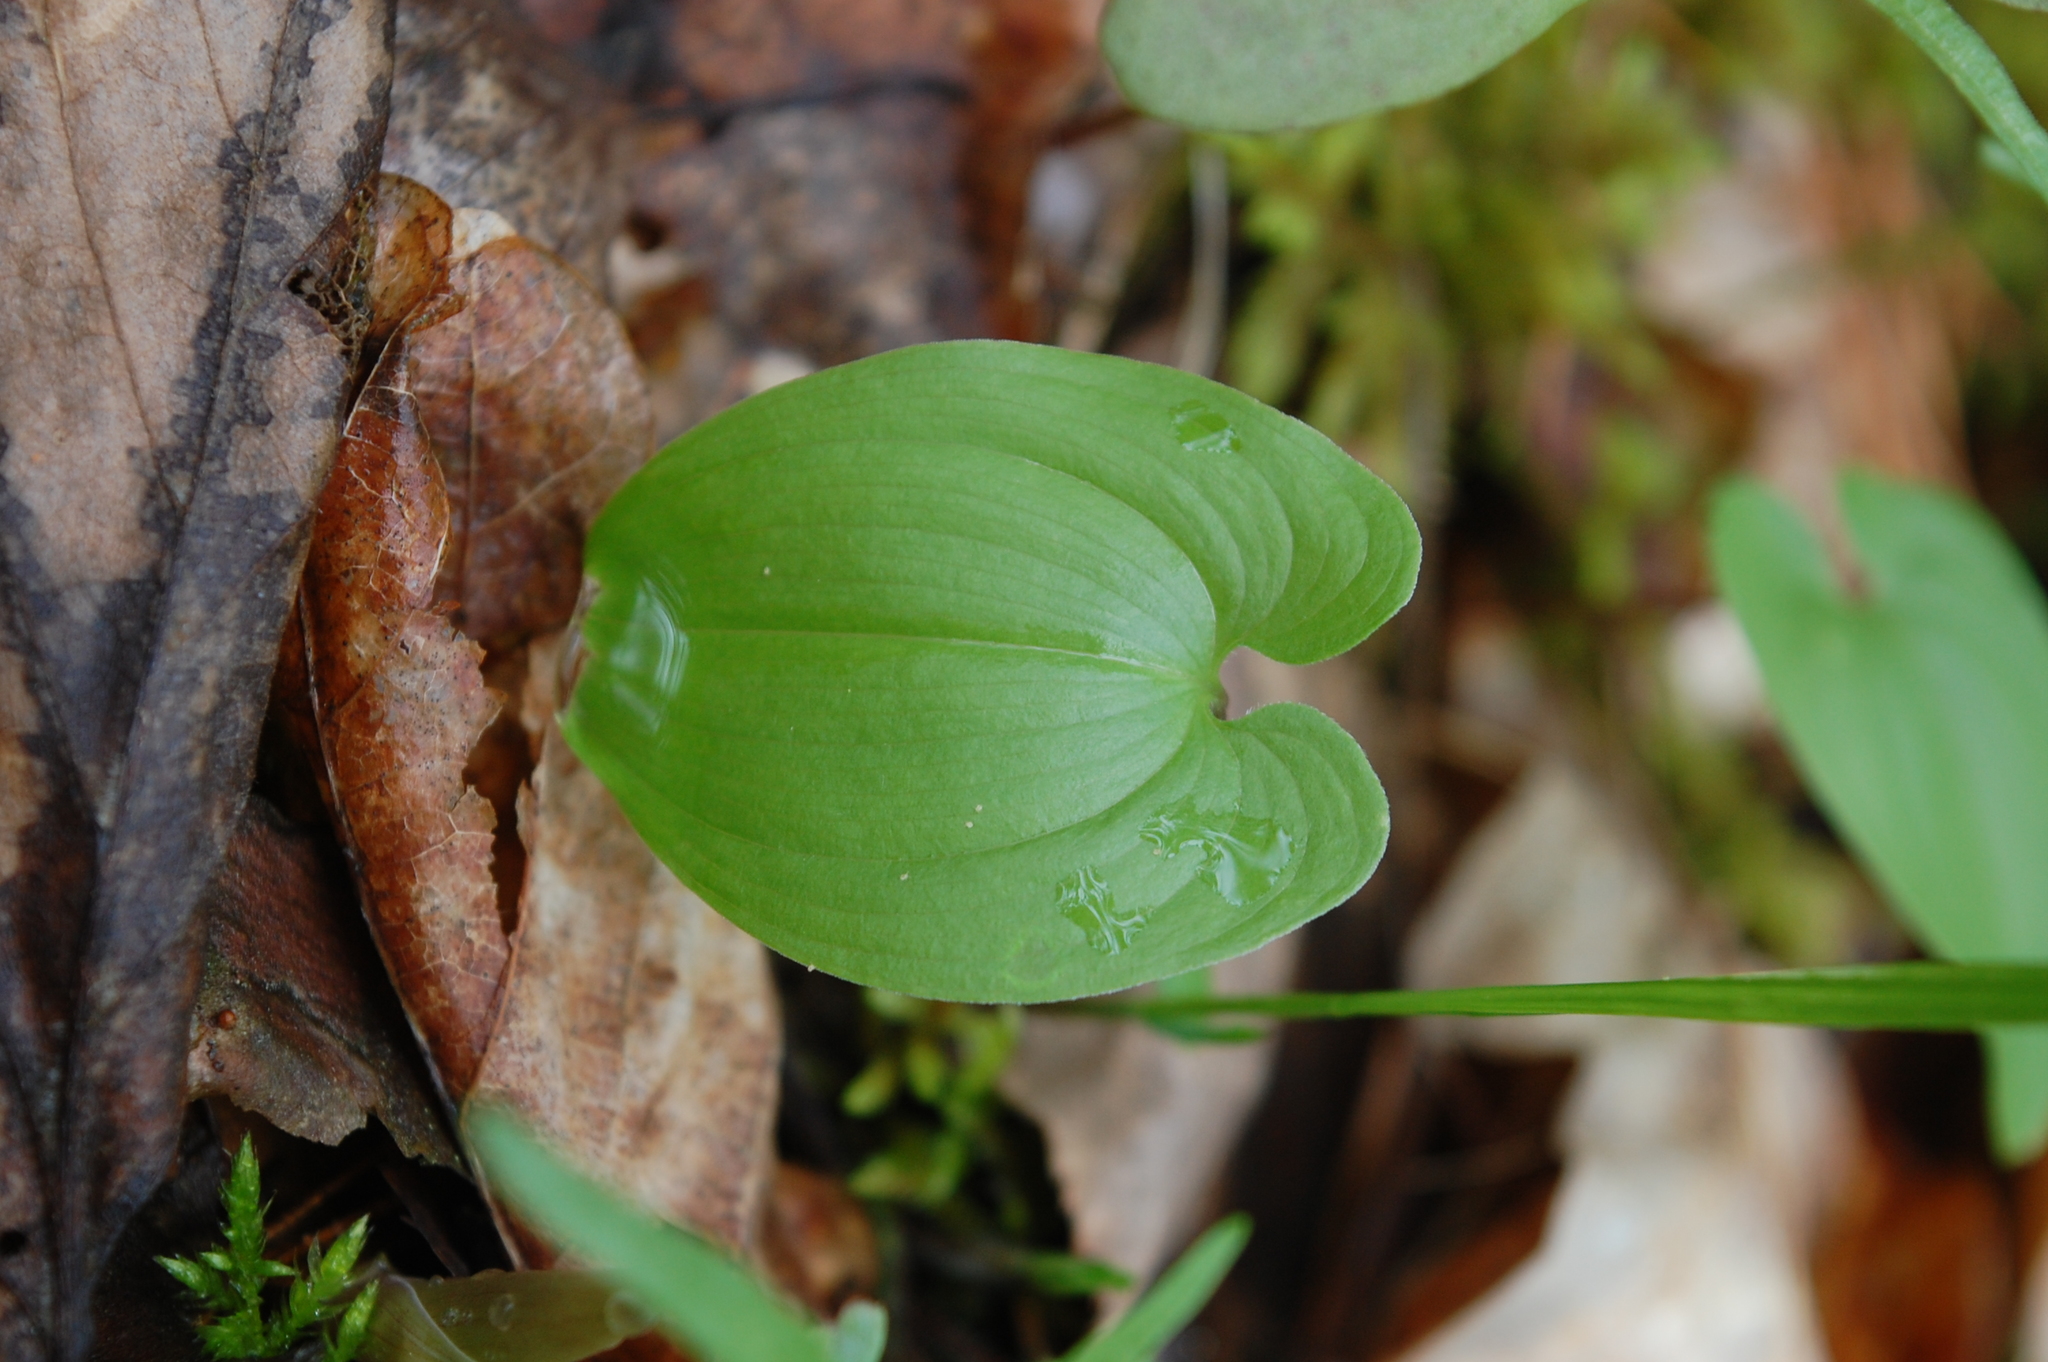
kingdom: Plantae
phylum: Tracheophyta
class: Liliopsida
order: Asparagales
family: Asparagaceae
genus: Maianthemum
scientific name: Maianthemum bifolium
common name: May lily
